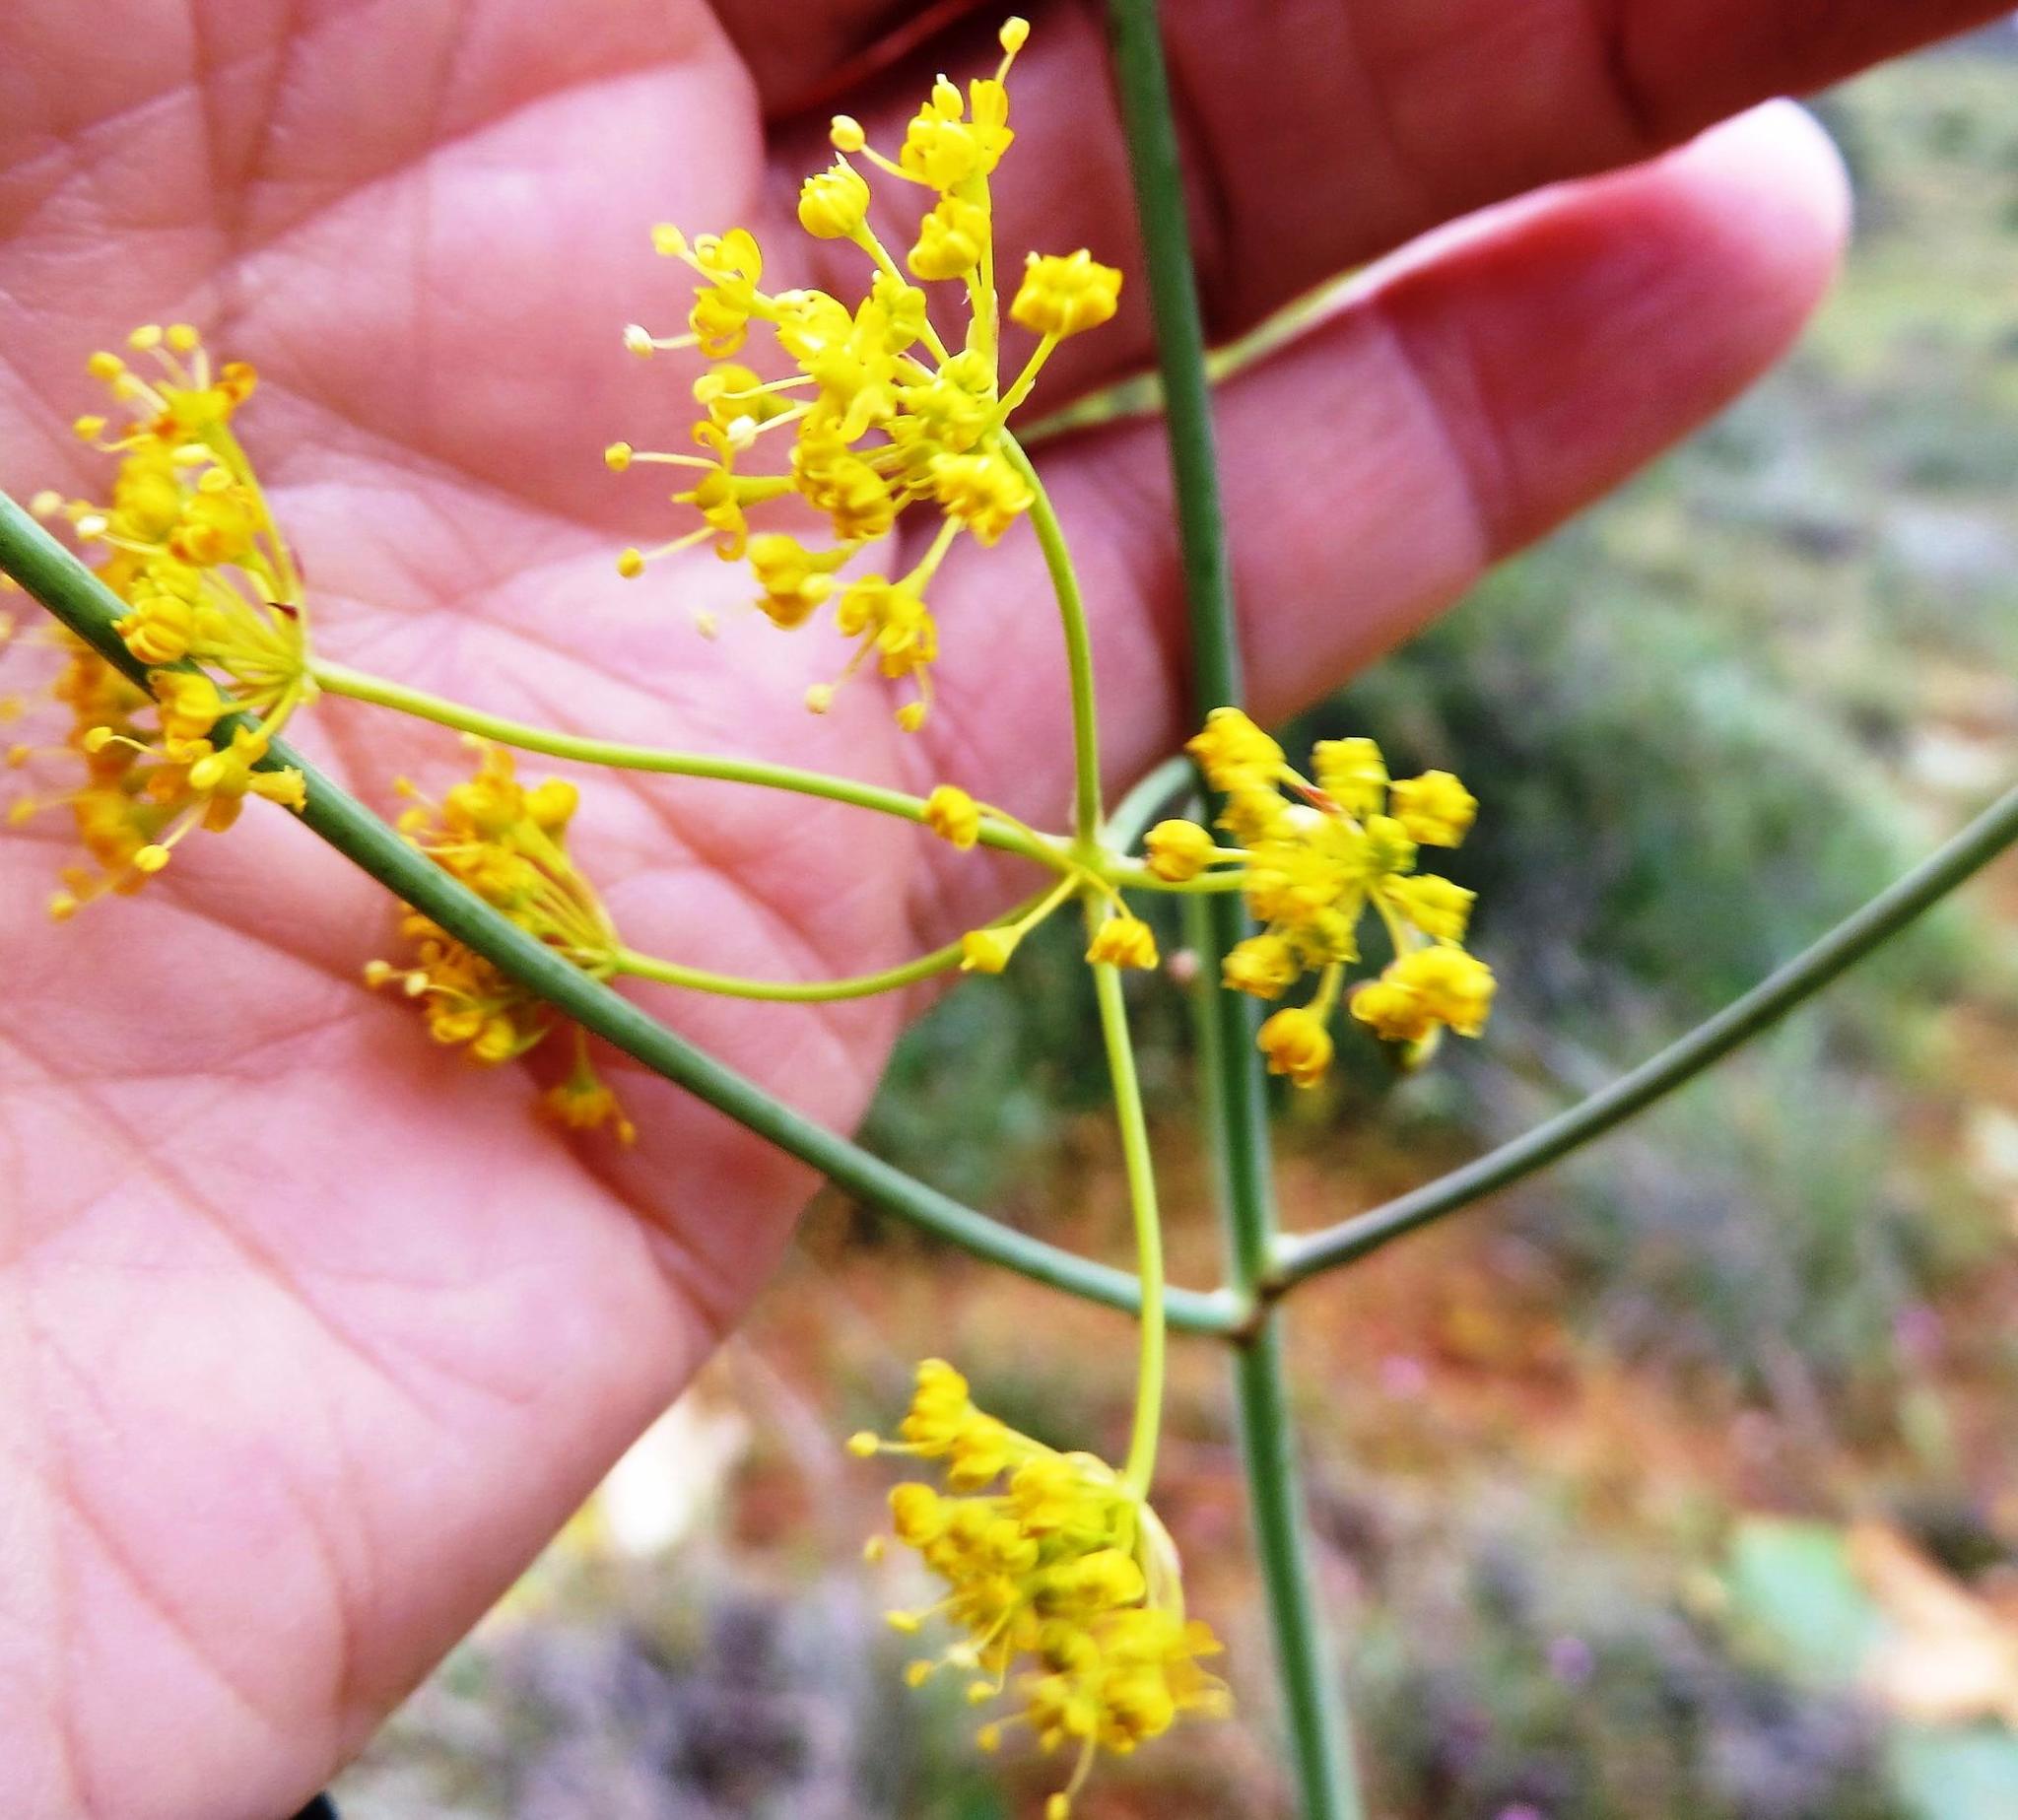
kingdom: Plantae
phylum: Tracheophyta
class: Magnoliopsida
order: Apiales
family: Apiaceae
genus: Annesorhiza
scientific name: Annesorhiza altiscapa
